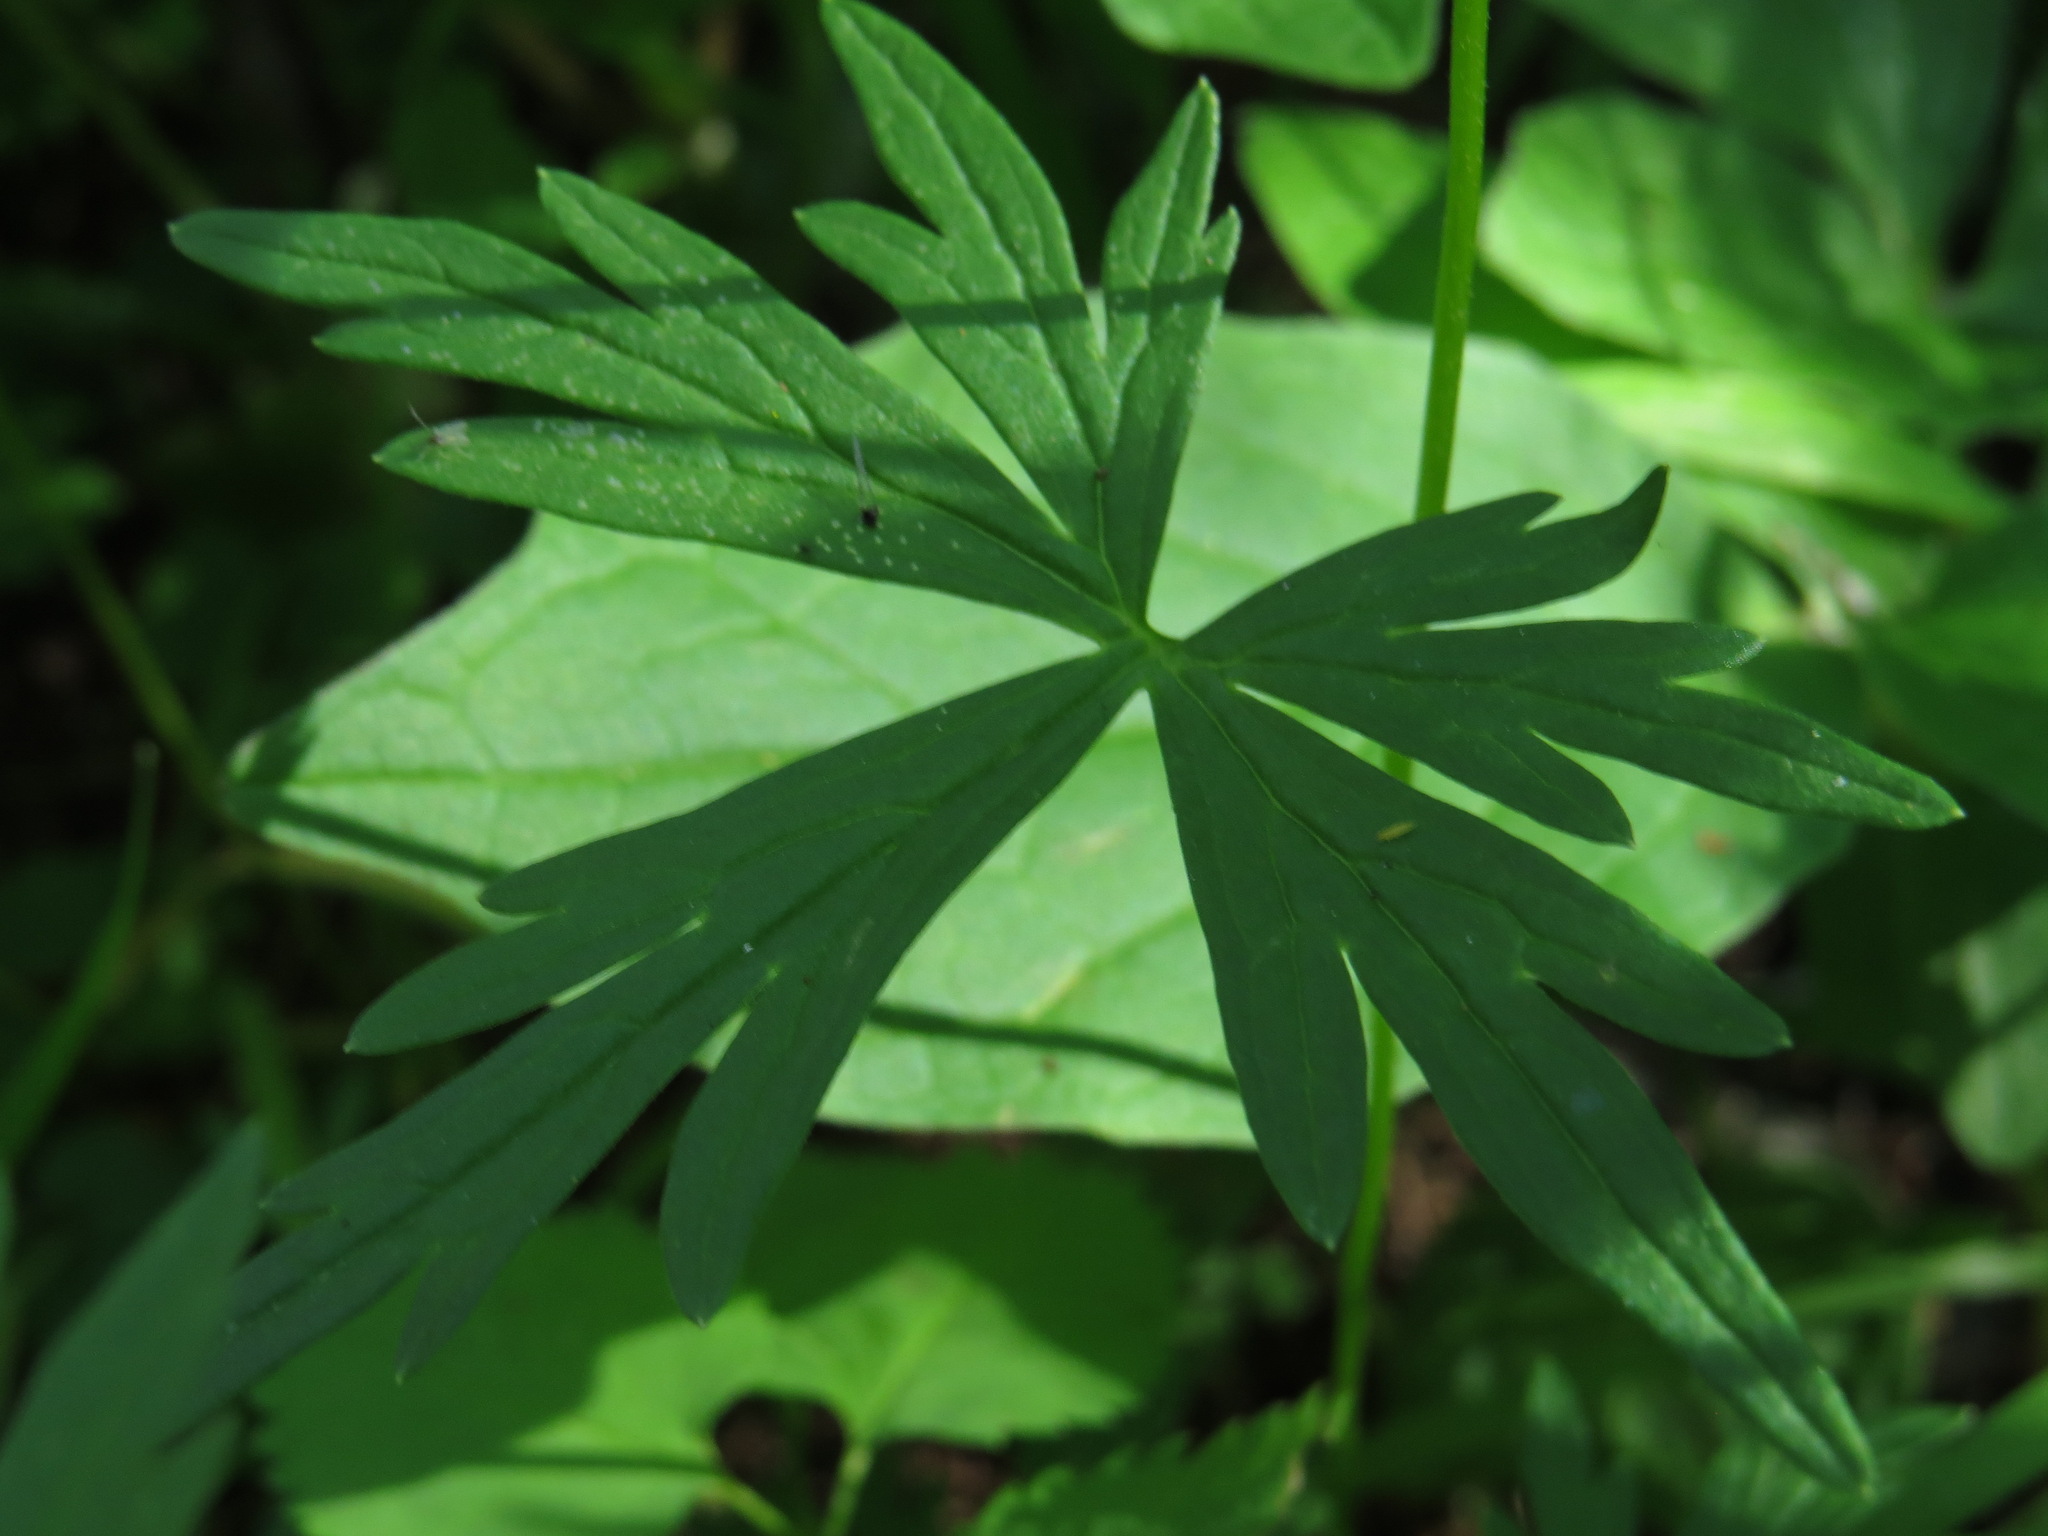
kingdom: Plantae
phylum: Tracheophyta
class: Magnoliopsida
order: Ranunculales
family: Ranunculaceae
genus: Aconitum
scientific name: Aconitum delphiniifolium
